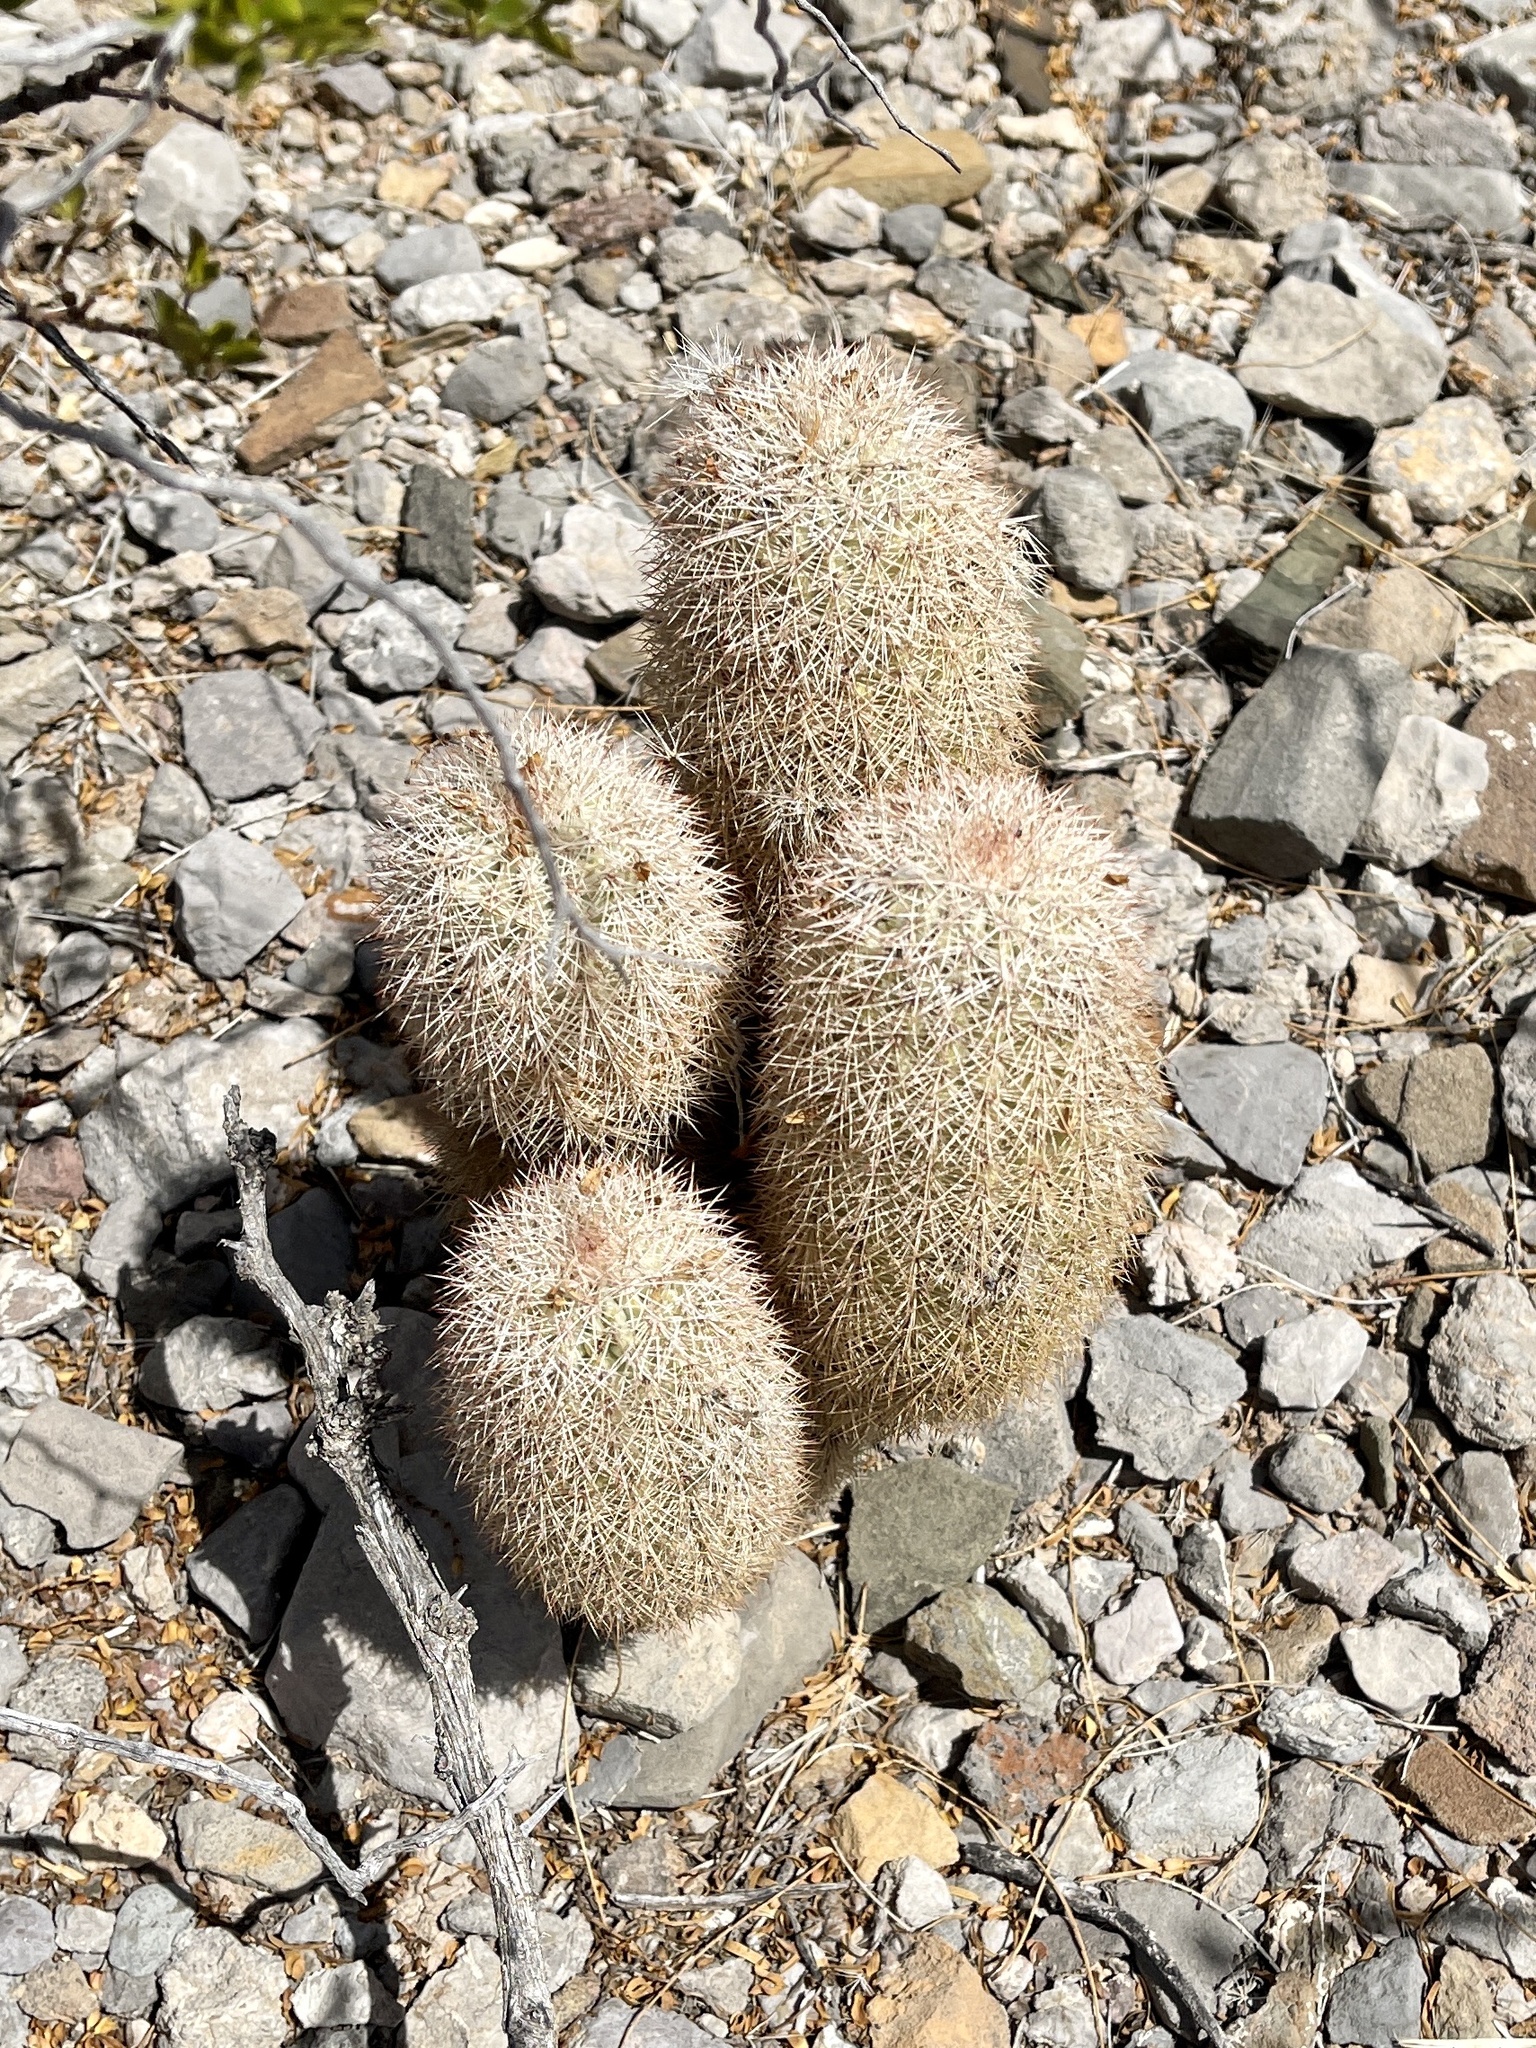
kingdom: Plantae
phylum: Tracheophyta
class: Magnoliopsida
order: Caryophyllales
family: Cactaceae
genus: Echinocereus
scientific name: Echinocereus dasyacanthus
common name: Spiny hedgehog cactus
